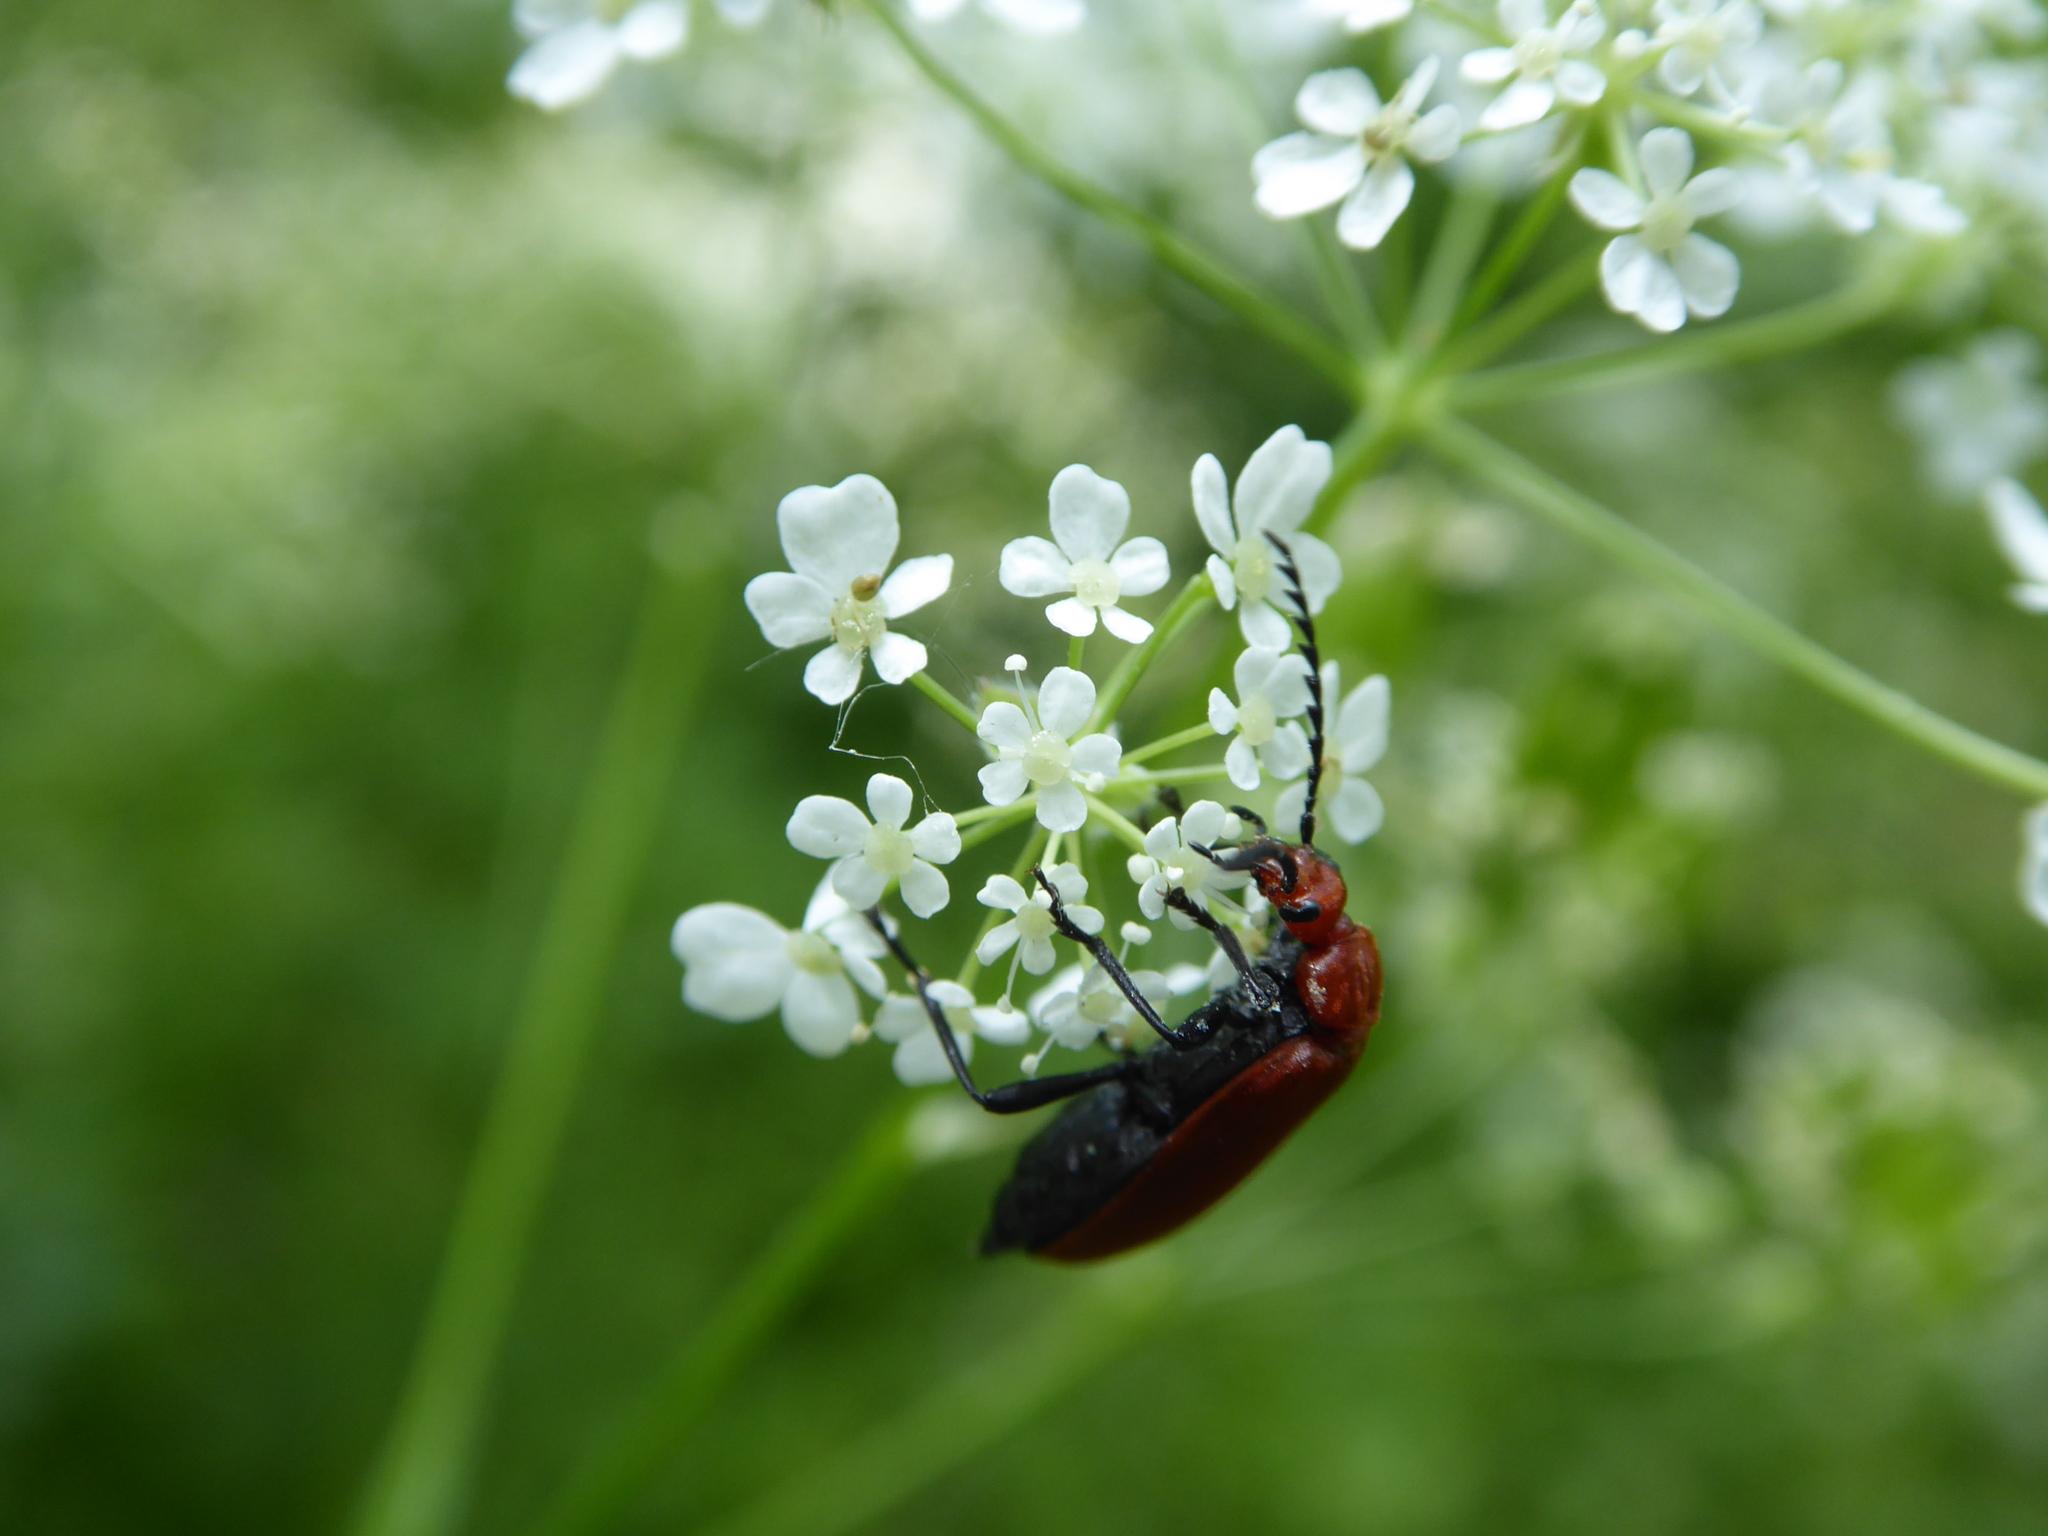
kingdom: Animalia
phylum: Arthropoda
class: Insecta
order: Coleoptera
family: Pyrochroidae
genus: Pyrochroa
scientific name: Pyrochroa serraticornis
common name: Red-headed cardinal beetle
